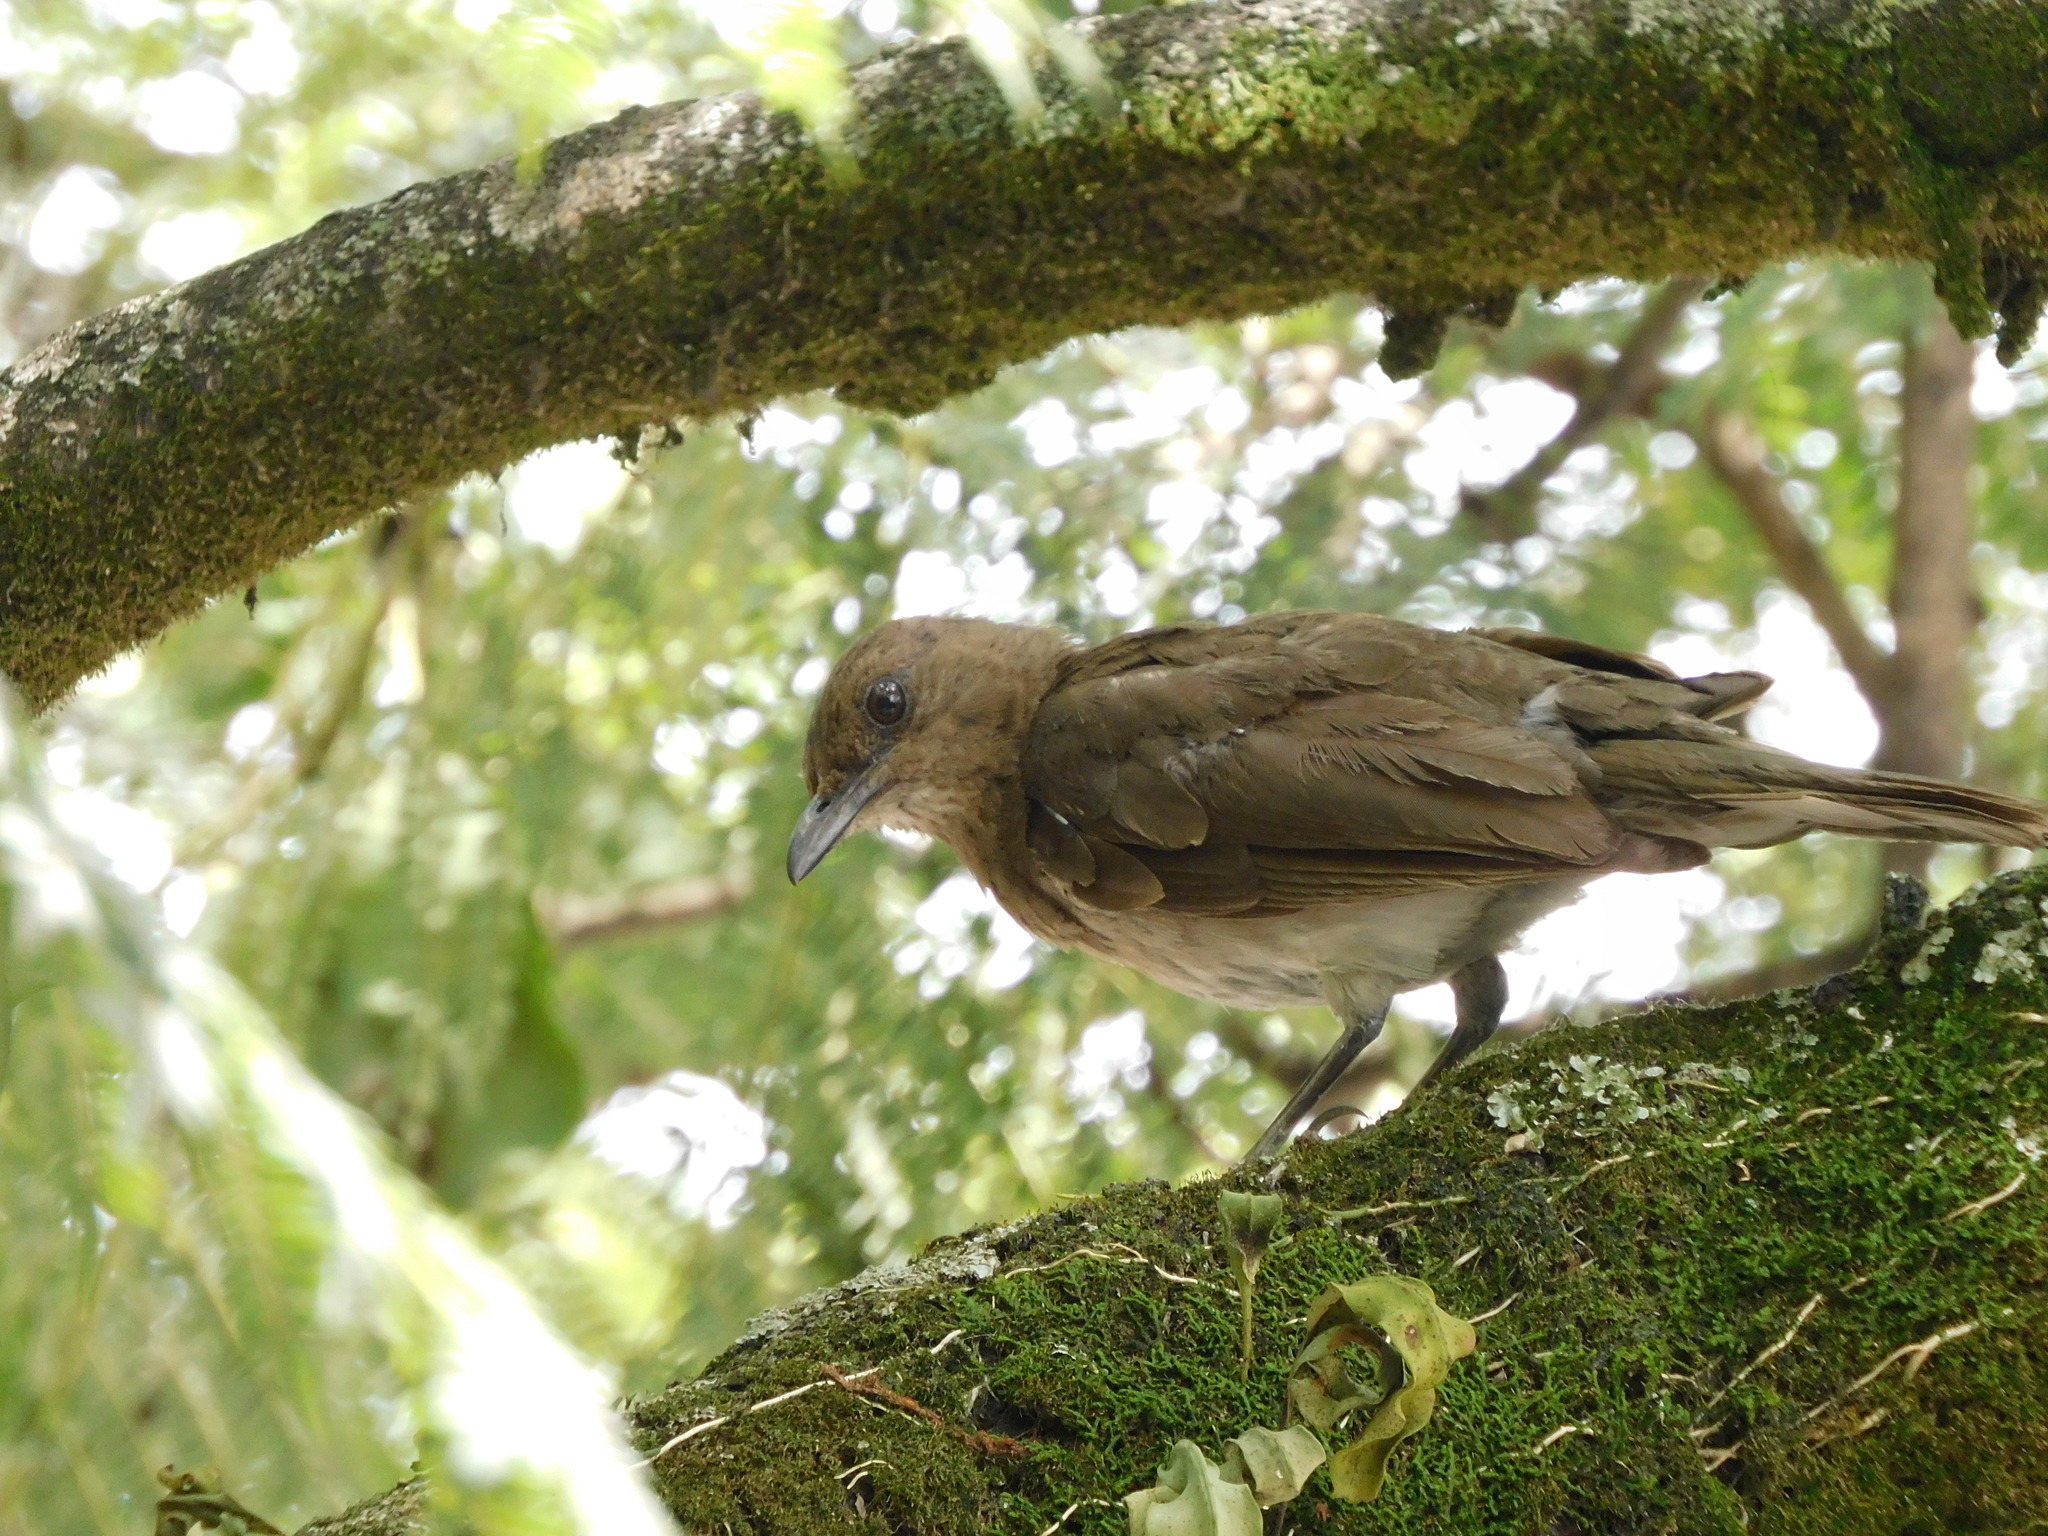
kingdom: Animalia
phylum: Chordata
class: Aves
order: Passeriformes
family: Turdidae
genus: Turdus
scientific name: Turdus ignobilis
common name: Black-billed thrush
